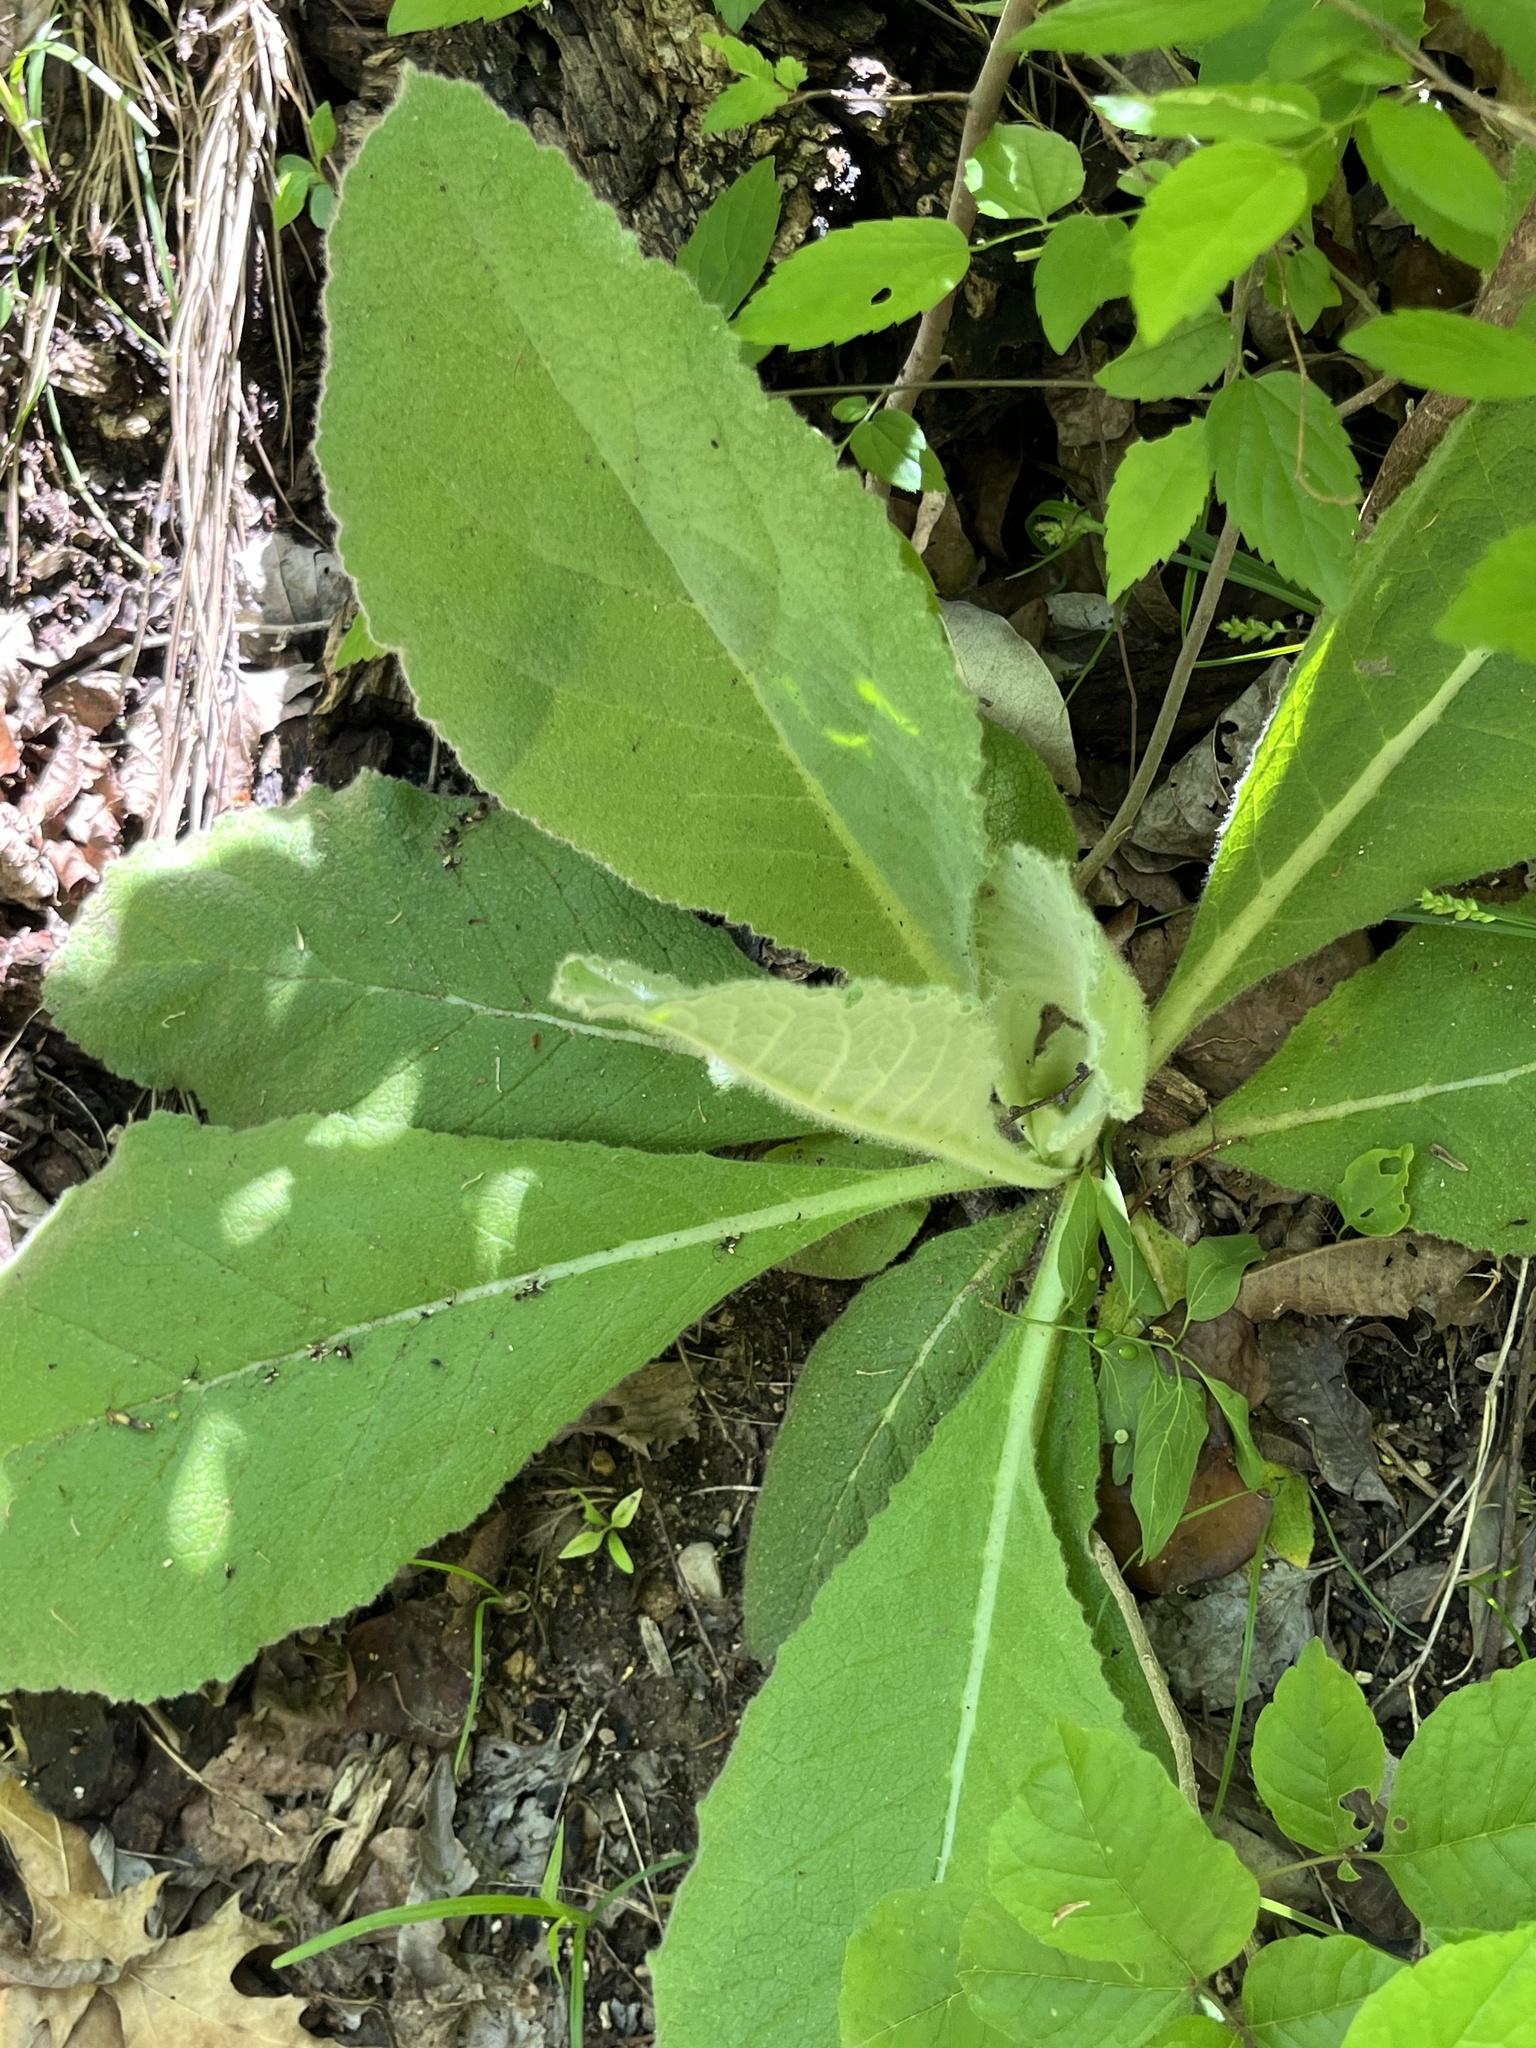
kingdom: Plantae
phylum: Tracheophyta
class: Magnoliopsida
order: Lamiales
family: Scrophulariaceae
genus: Verbascum
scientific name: Verbascum thapsus
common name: Common mullein
